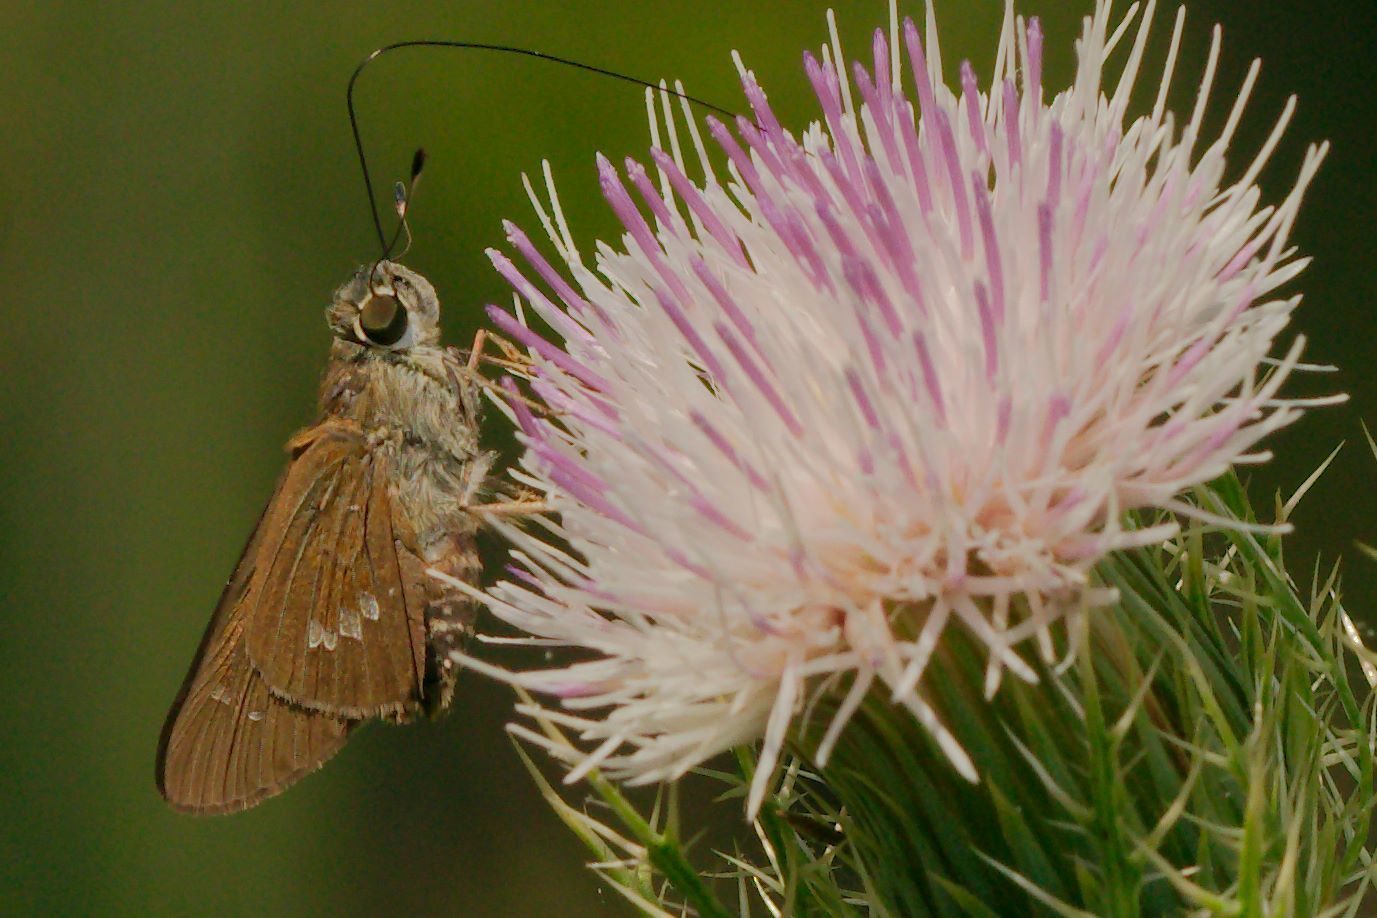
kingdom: Animalia
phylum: Arthropoda
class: Insecta
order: Lepidoptera
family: Hesperiidae
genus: Calpodes
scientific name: Calpodes ethlius
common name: Brazilian skipper
